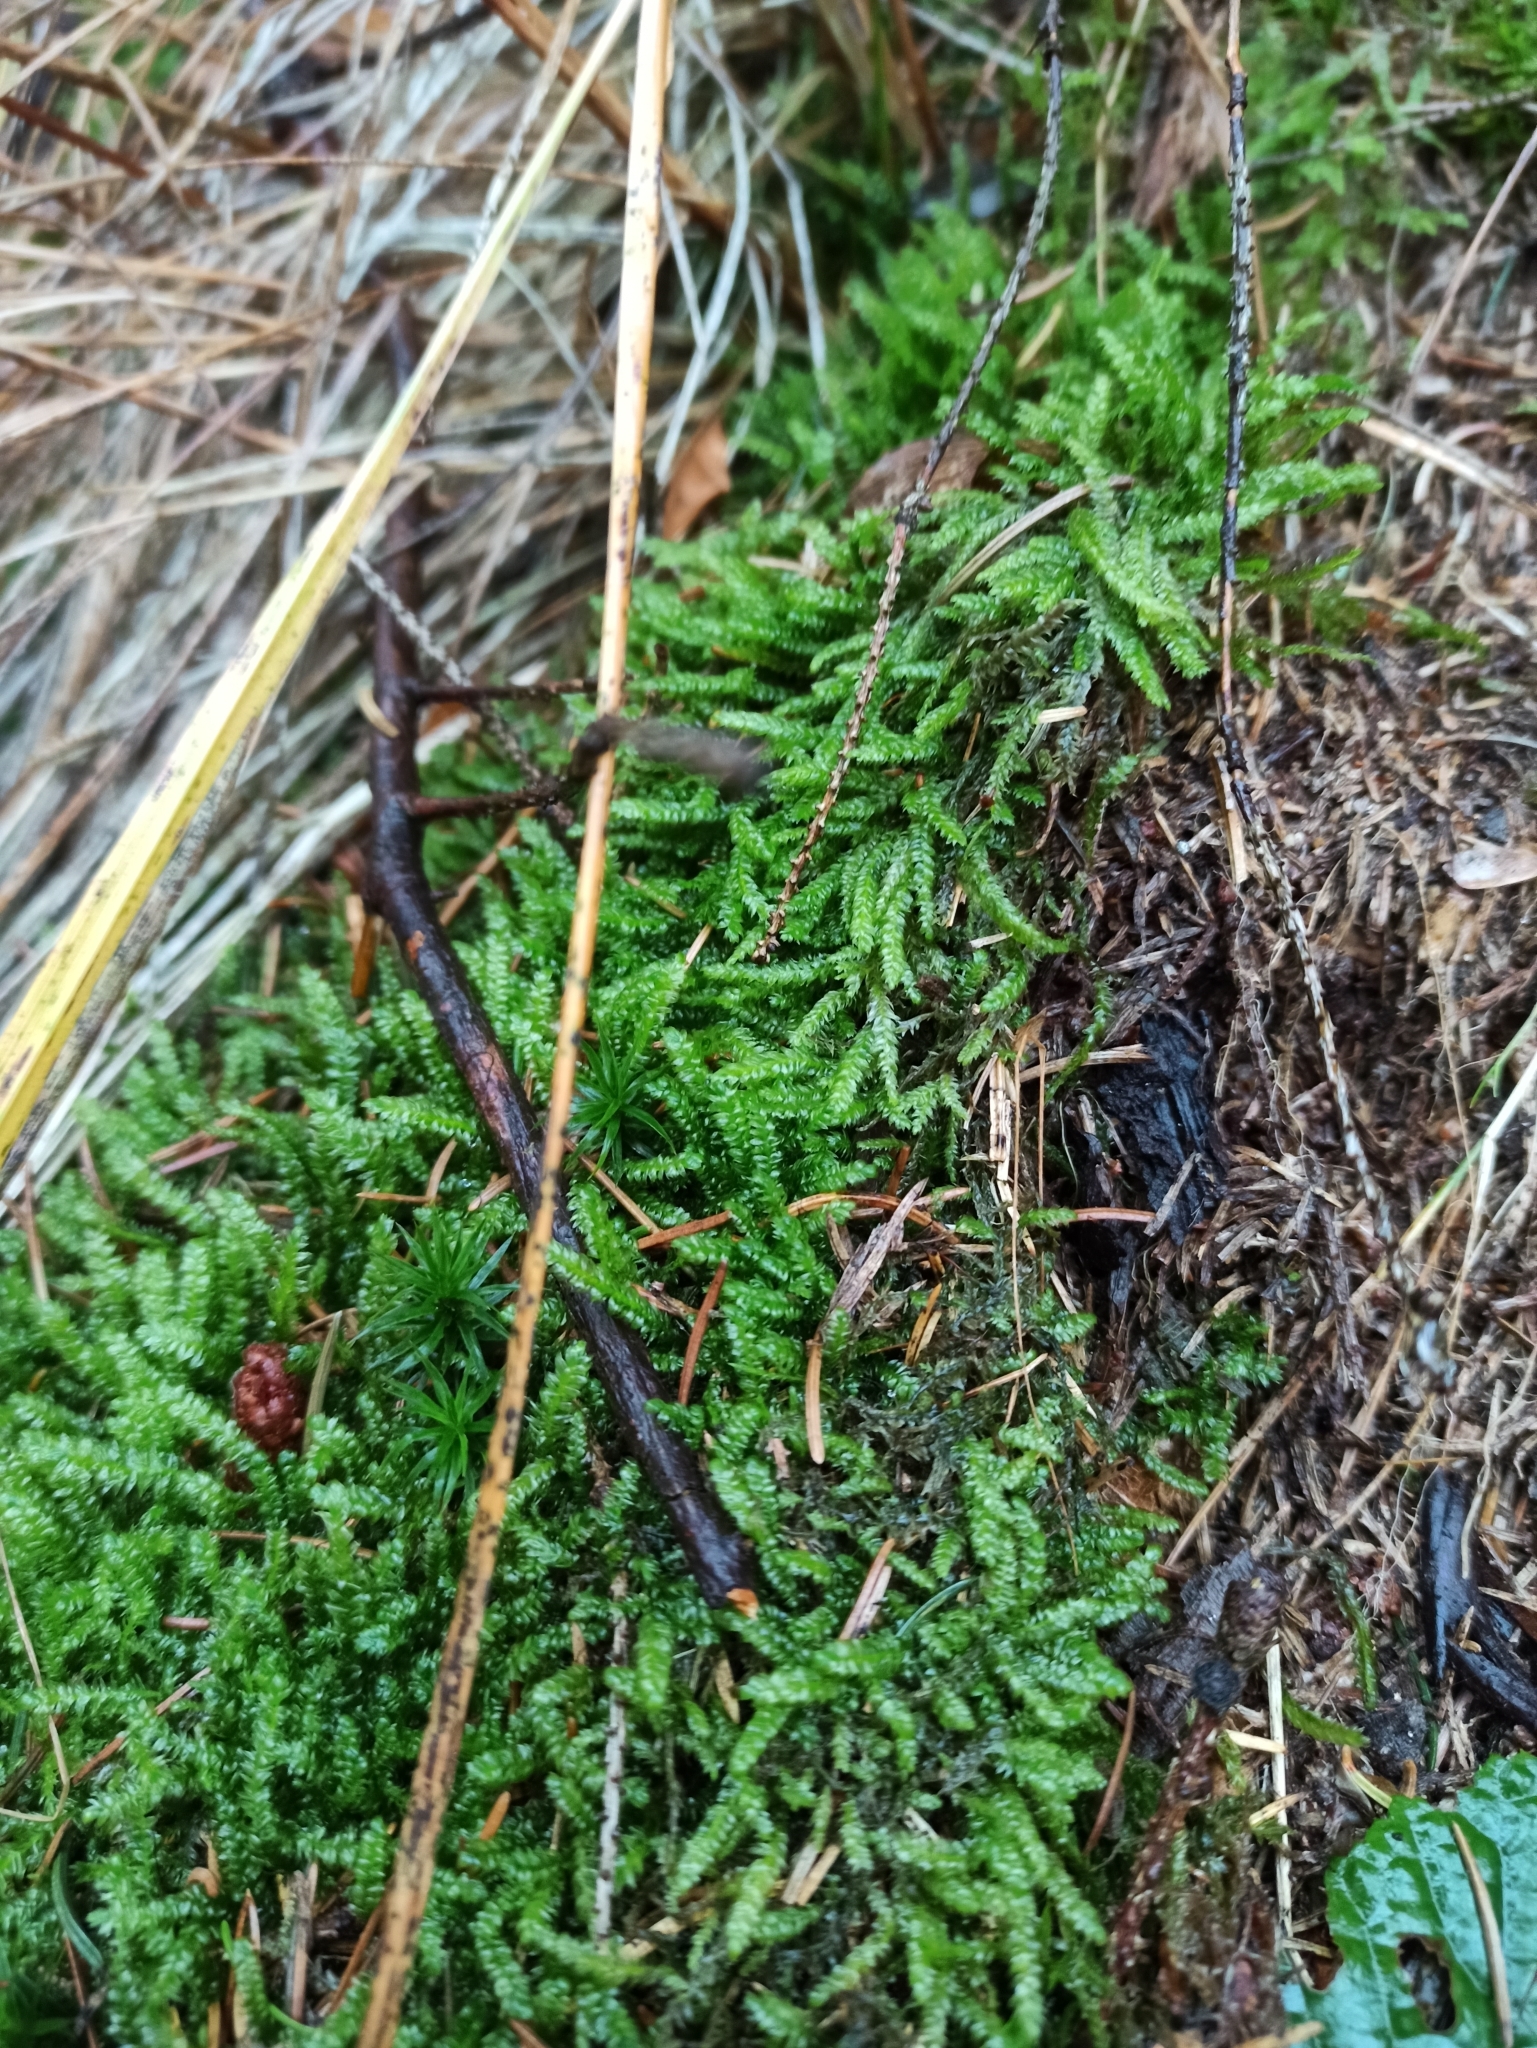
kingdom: Plantae
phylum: Bryophyta
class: Bryopsida
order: Hypnales
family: Hypnaceae
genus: Hypnum
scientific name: Hypnum cupressiforme
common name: Cypress-leaved plait-moss
